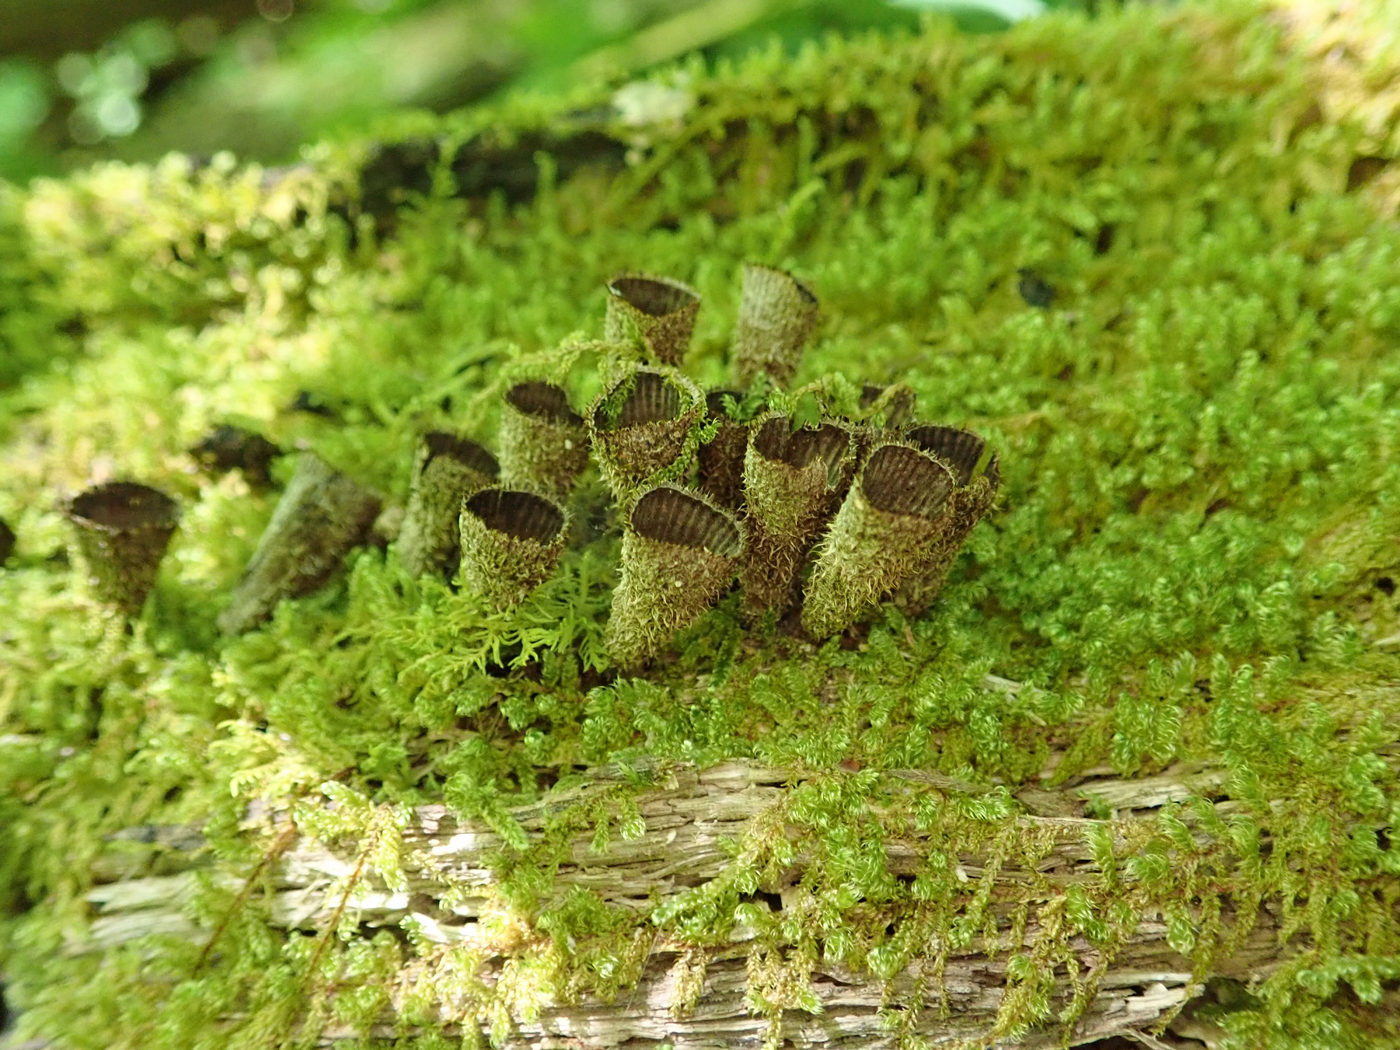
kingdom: Fungi
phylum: Basidiomycota
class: Agaricomycetes
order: Agaricales
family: Agaricaceae
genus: Cyathus
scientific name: Cyathus striatus
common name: Fluted bird's nest
